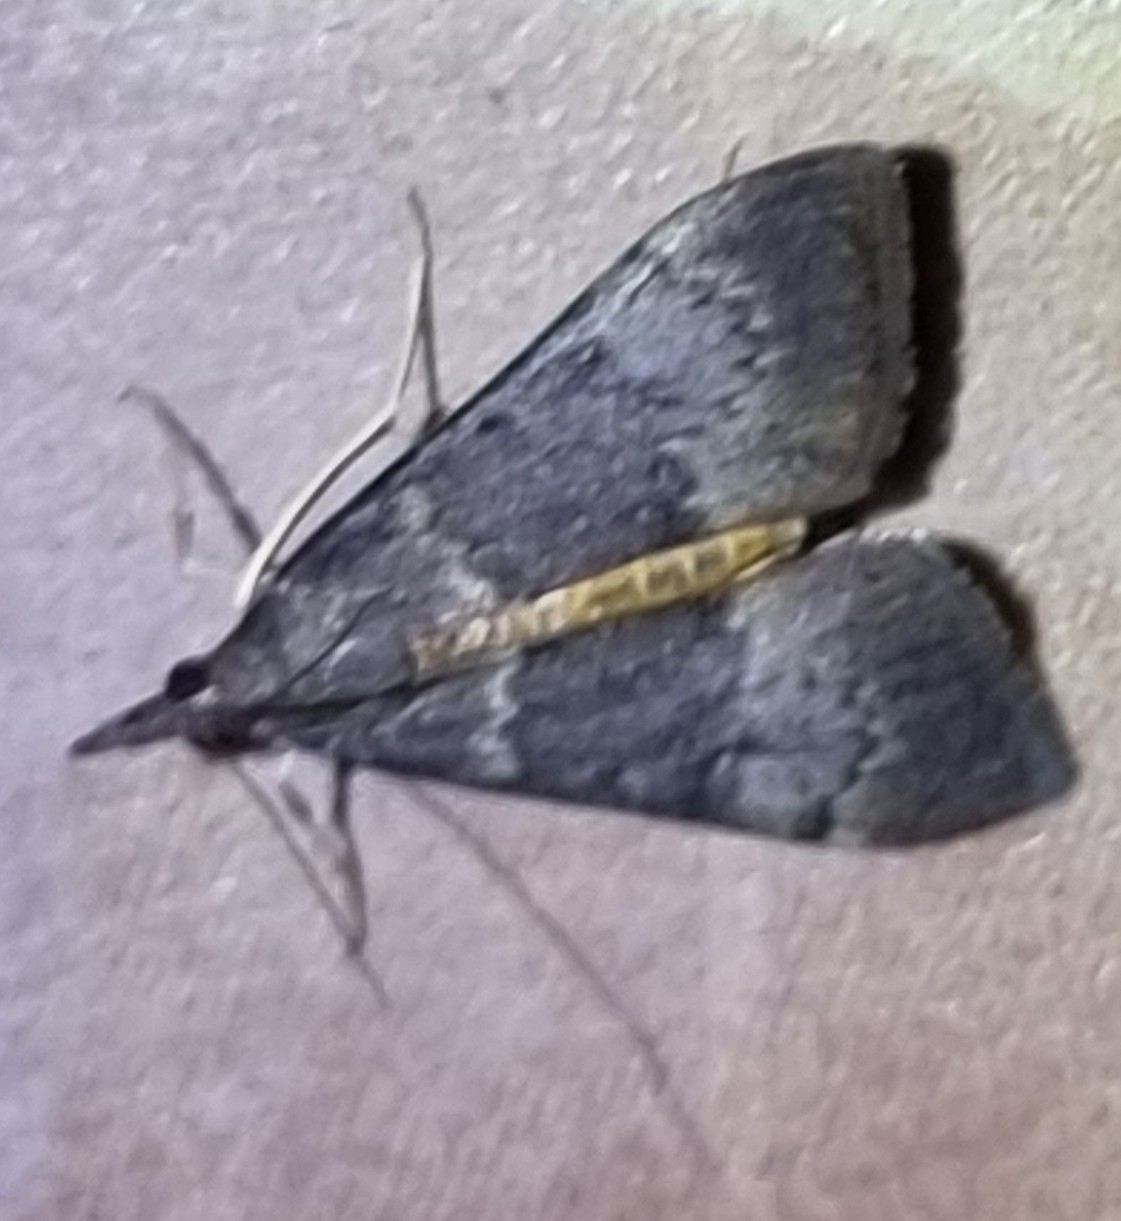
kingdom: Animalia
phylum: Arthropoda
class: Insecta
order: Lepidoptera
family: Crambidae
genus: Uresiphita
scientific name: Uresiphita ornithopteralis
